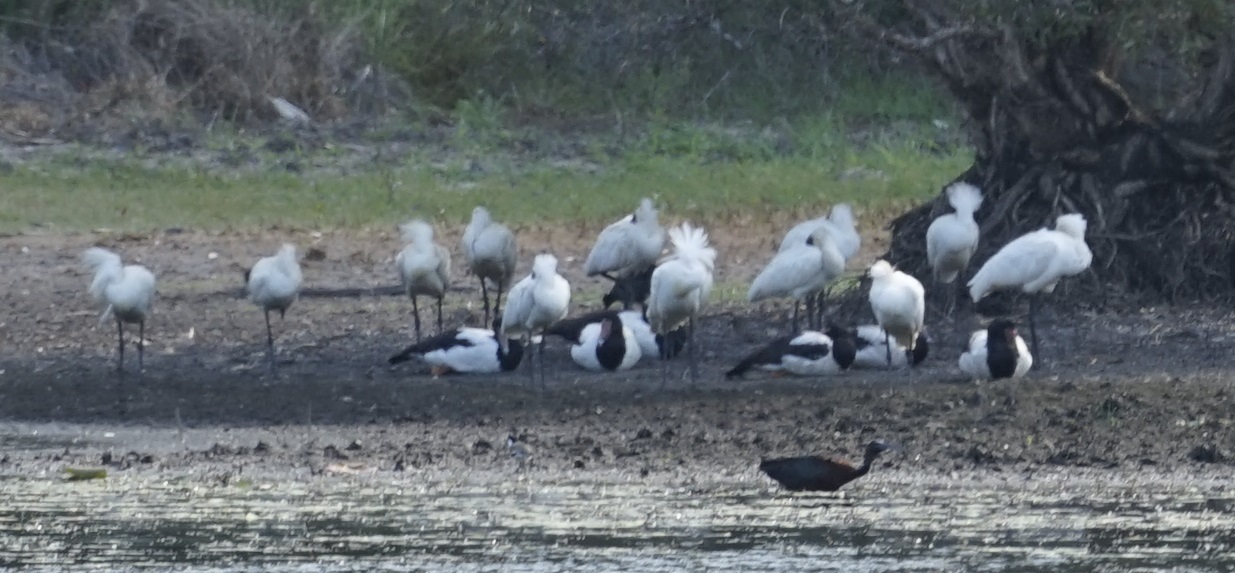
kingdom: Animalia
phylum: Chordata
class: Aves
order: Pelecaniformes
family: Threskiornithidae
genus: Platalea
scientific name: Platalea regia
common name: Royal spoonbill
